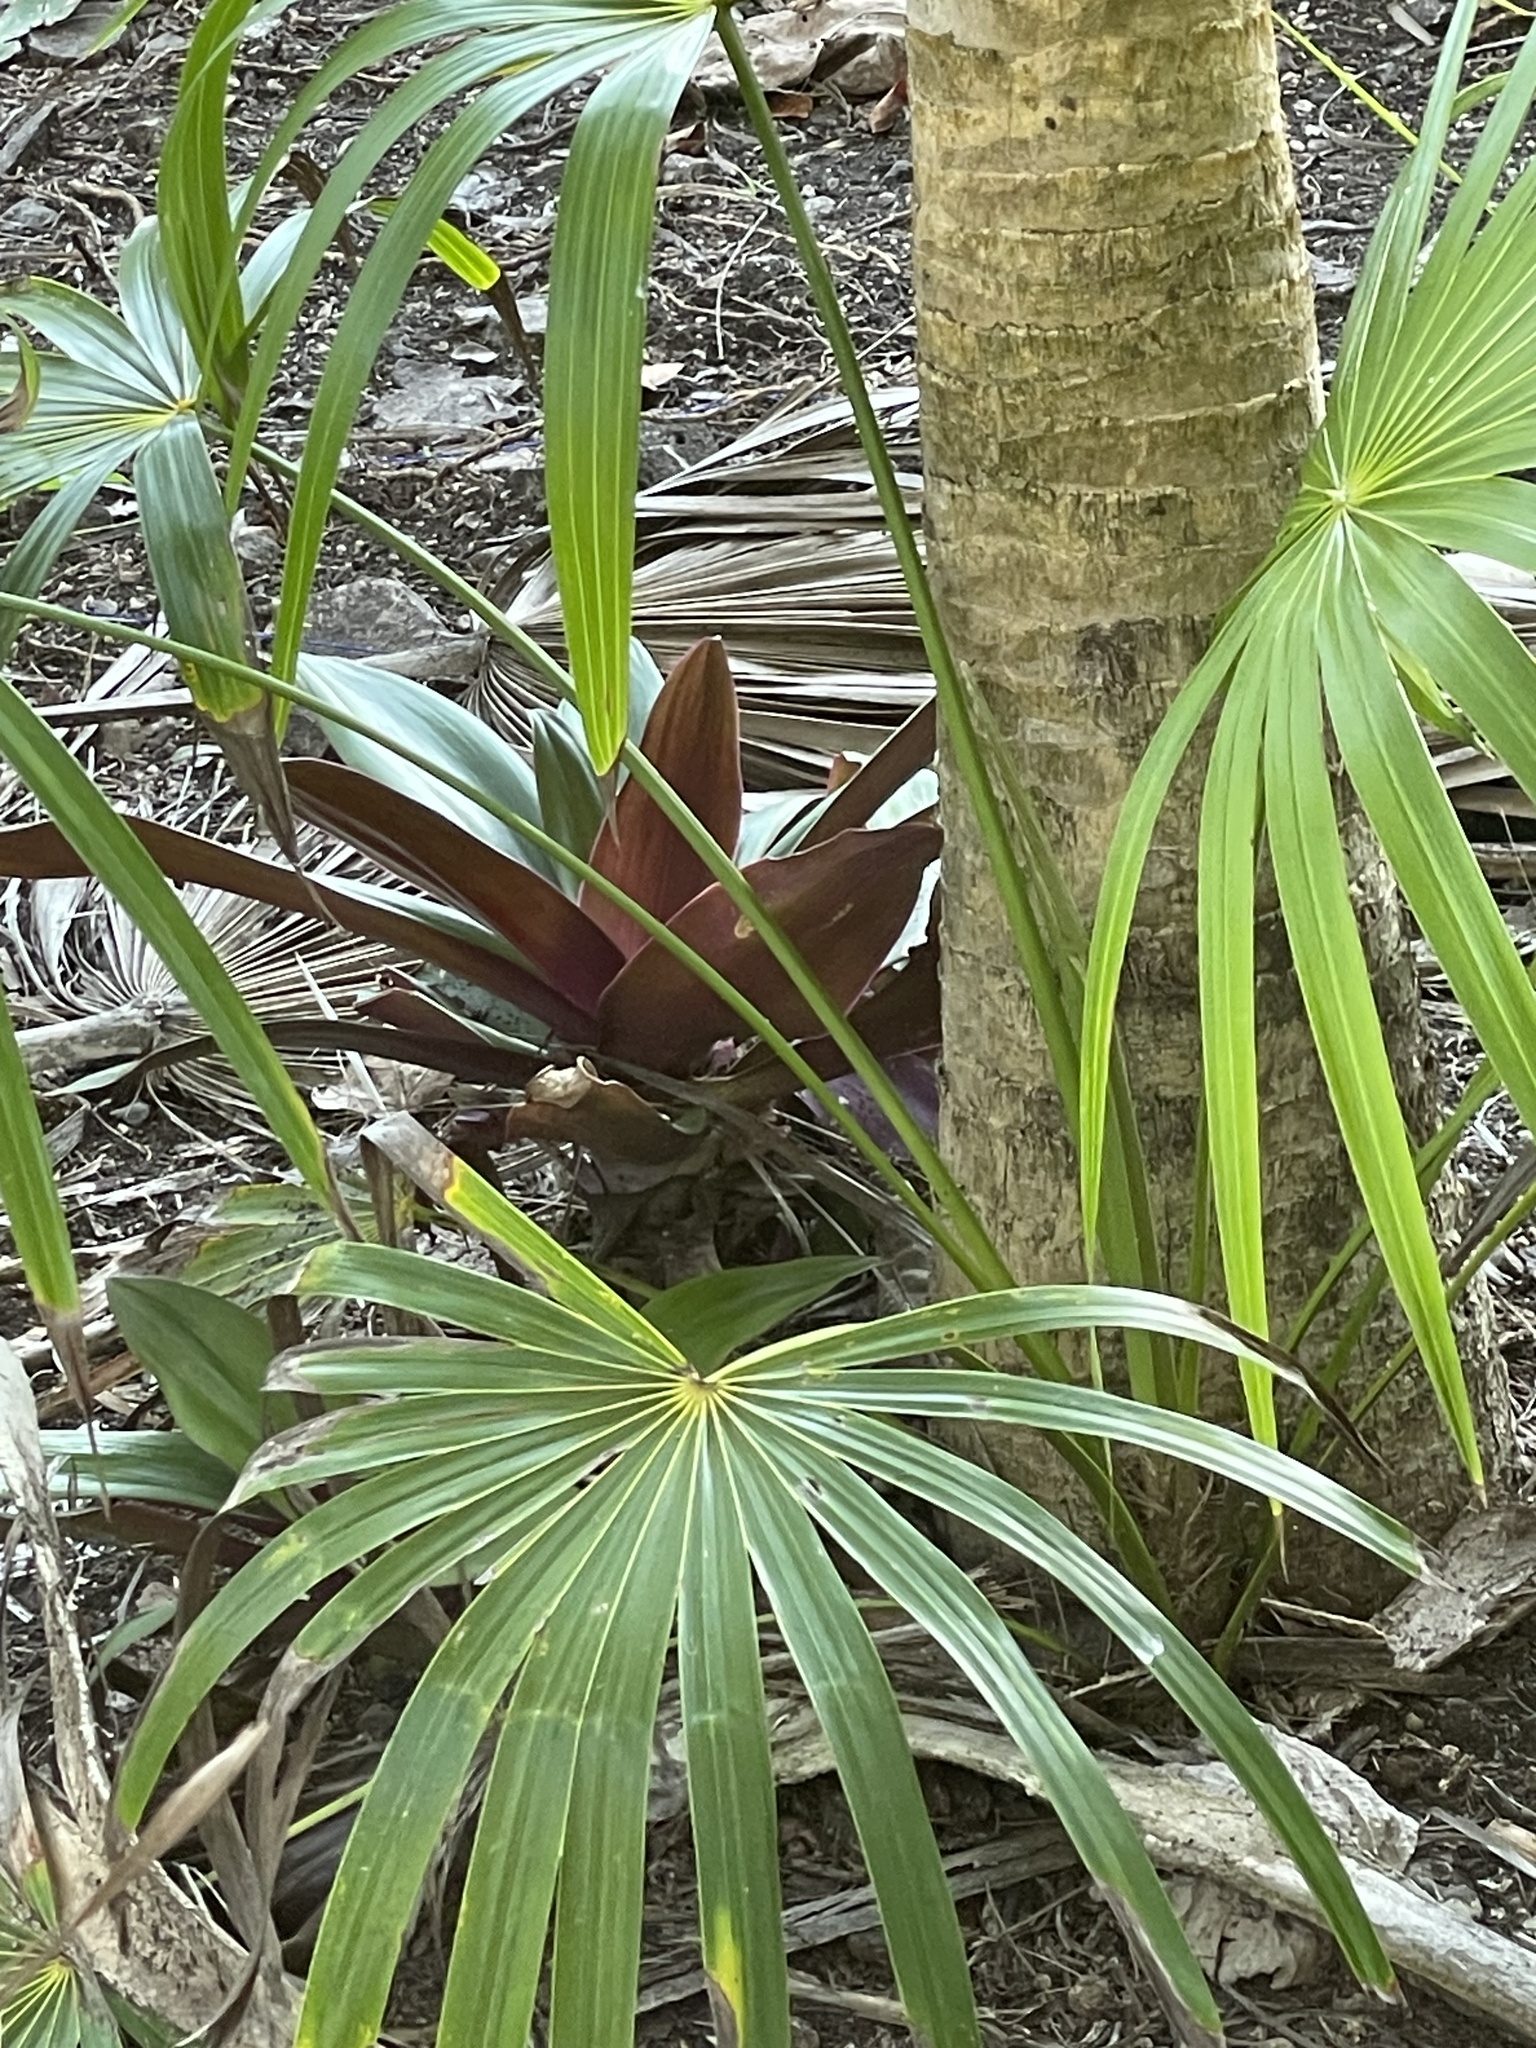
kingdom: Plantae
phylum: Tracheophyta
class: Liliopsida
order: Commelinales
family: Commelinaceae
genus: Tradescantia
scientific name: Tradescantia spathacea
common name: Boatlily
